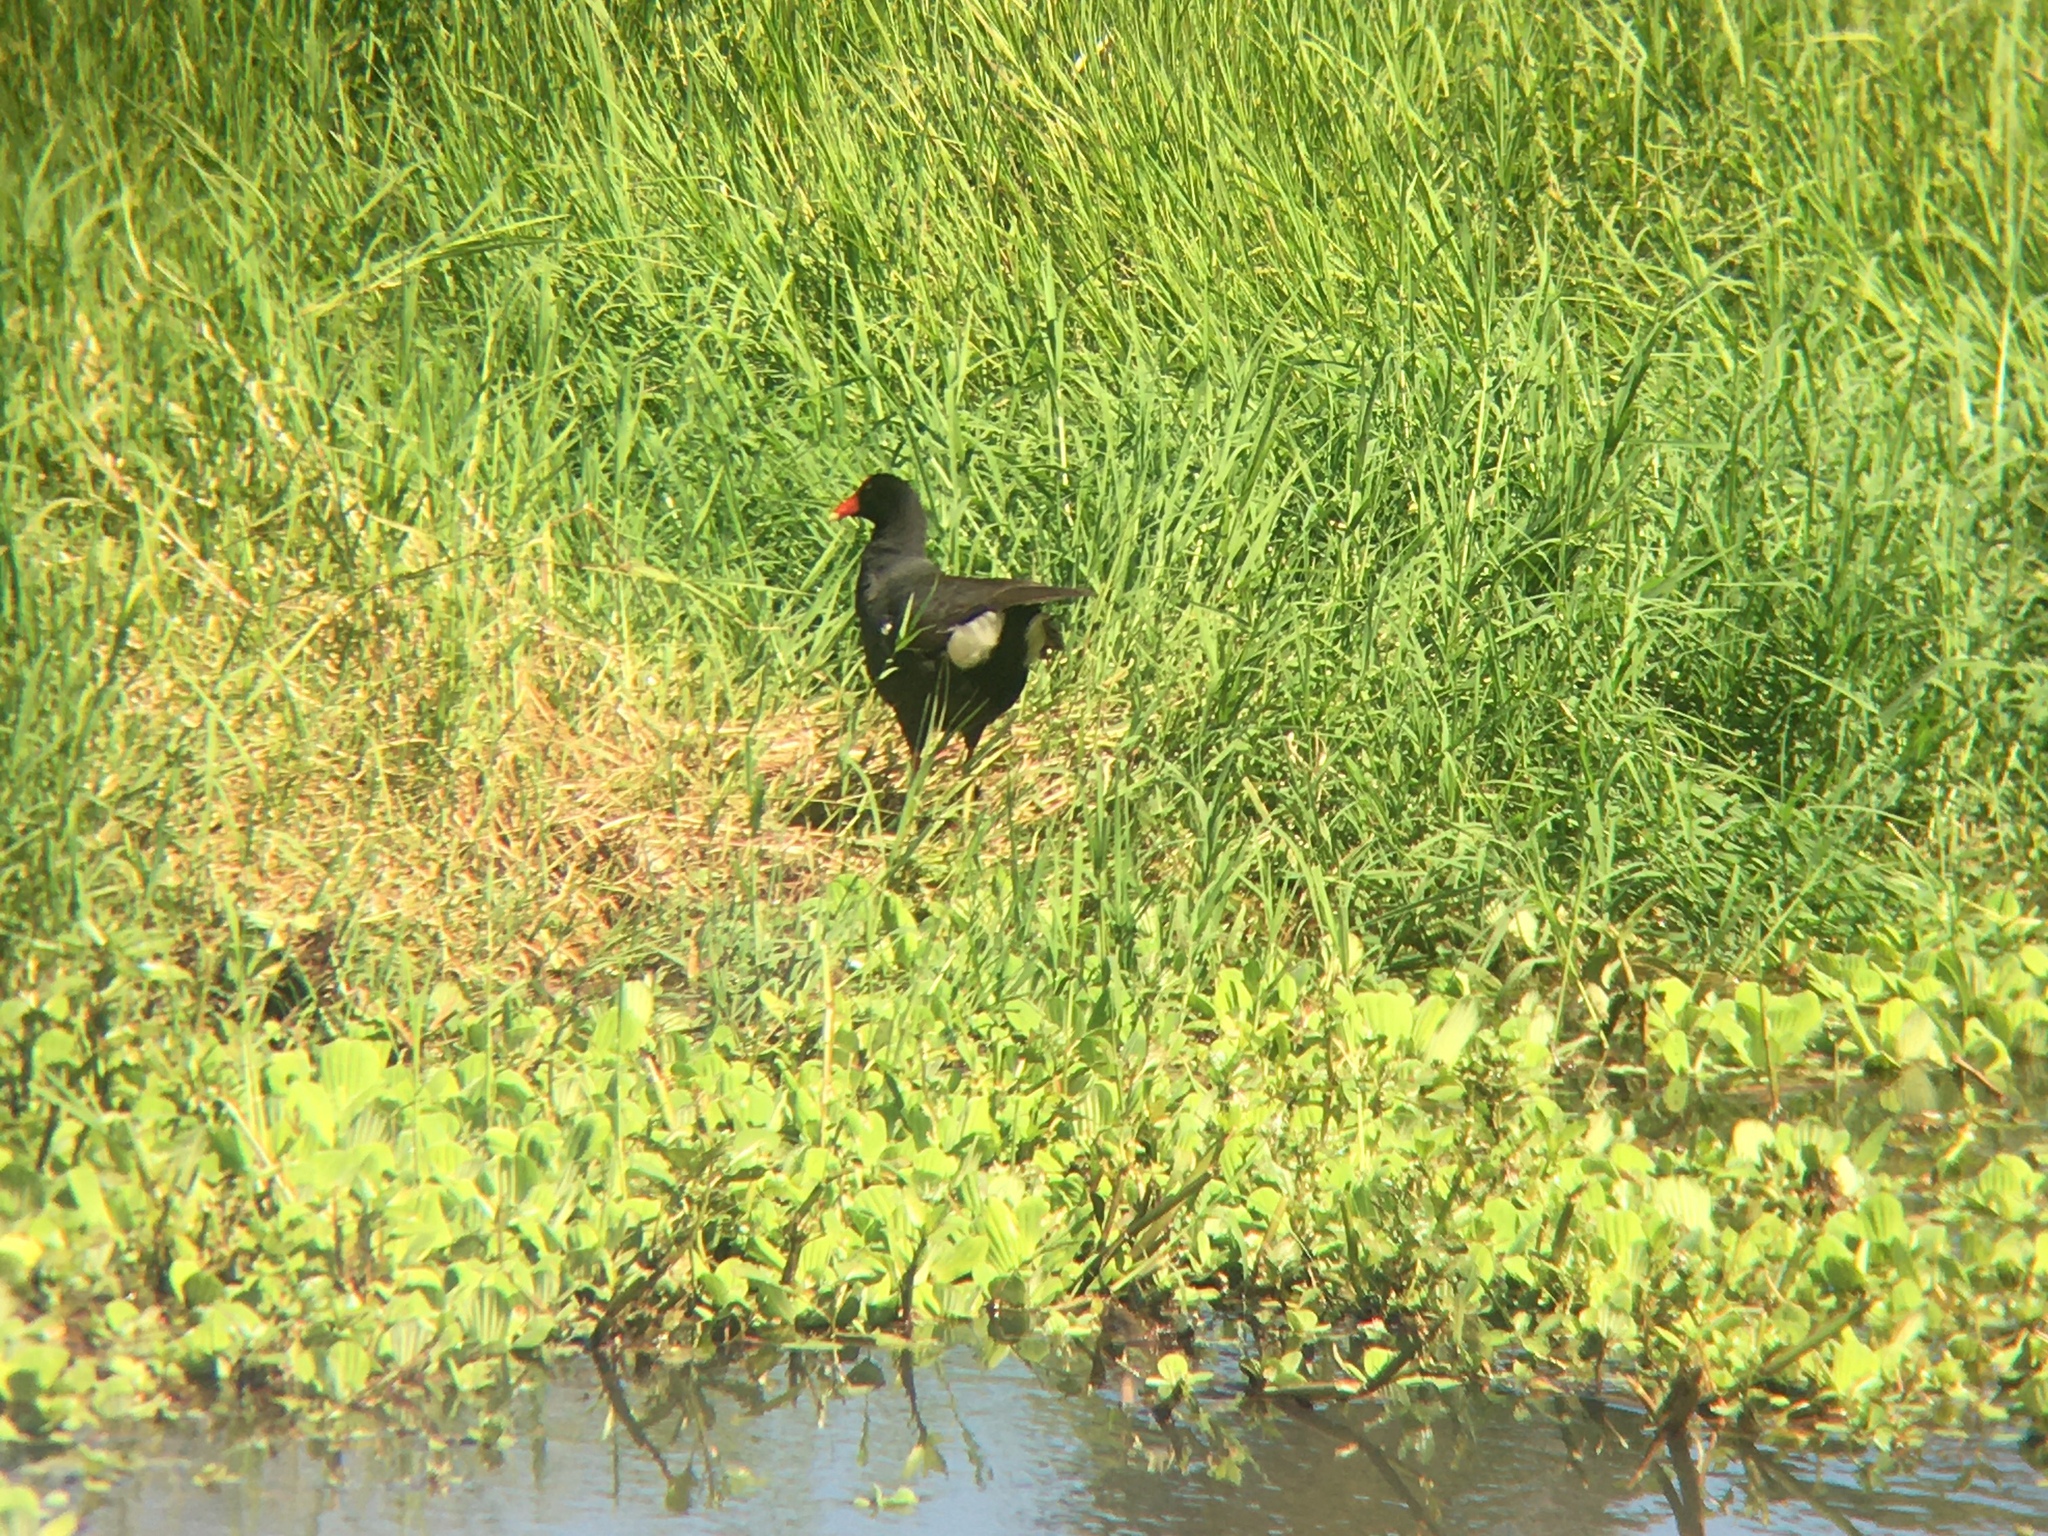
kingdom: Animalia
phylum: Chordata
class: Aves
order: Gruiformes
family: Rallidae
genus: Gallinula
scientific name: Gallinula chloropus
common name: Common moorhen
